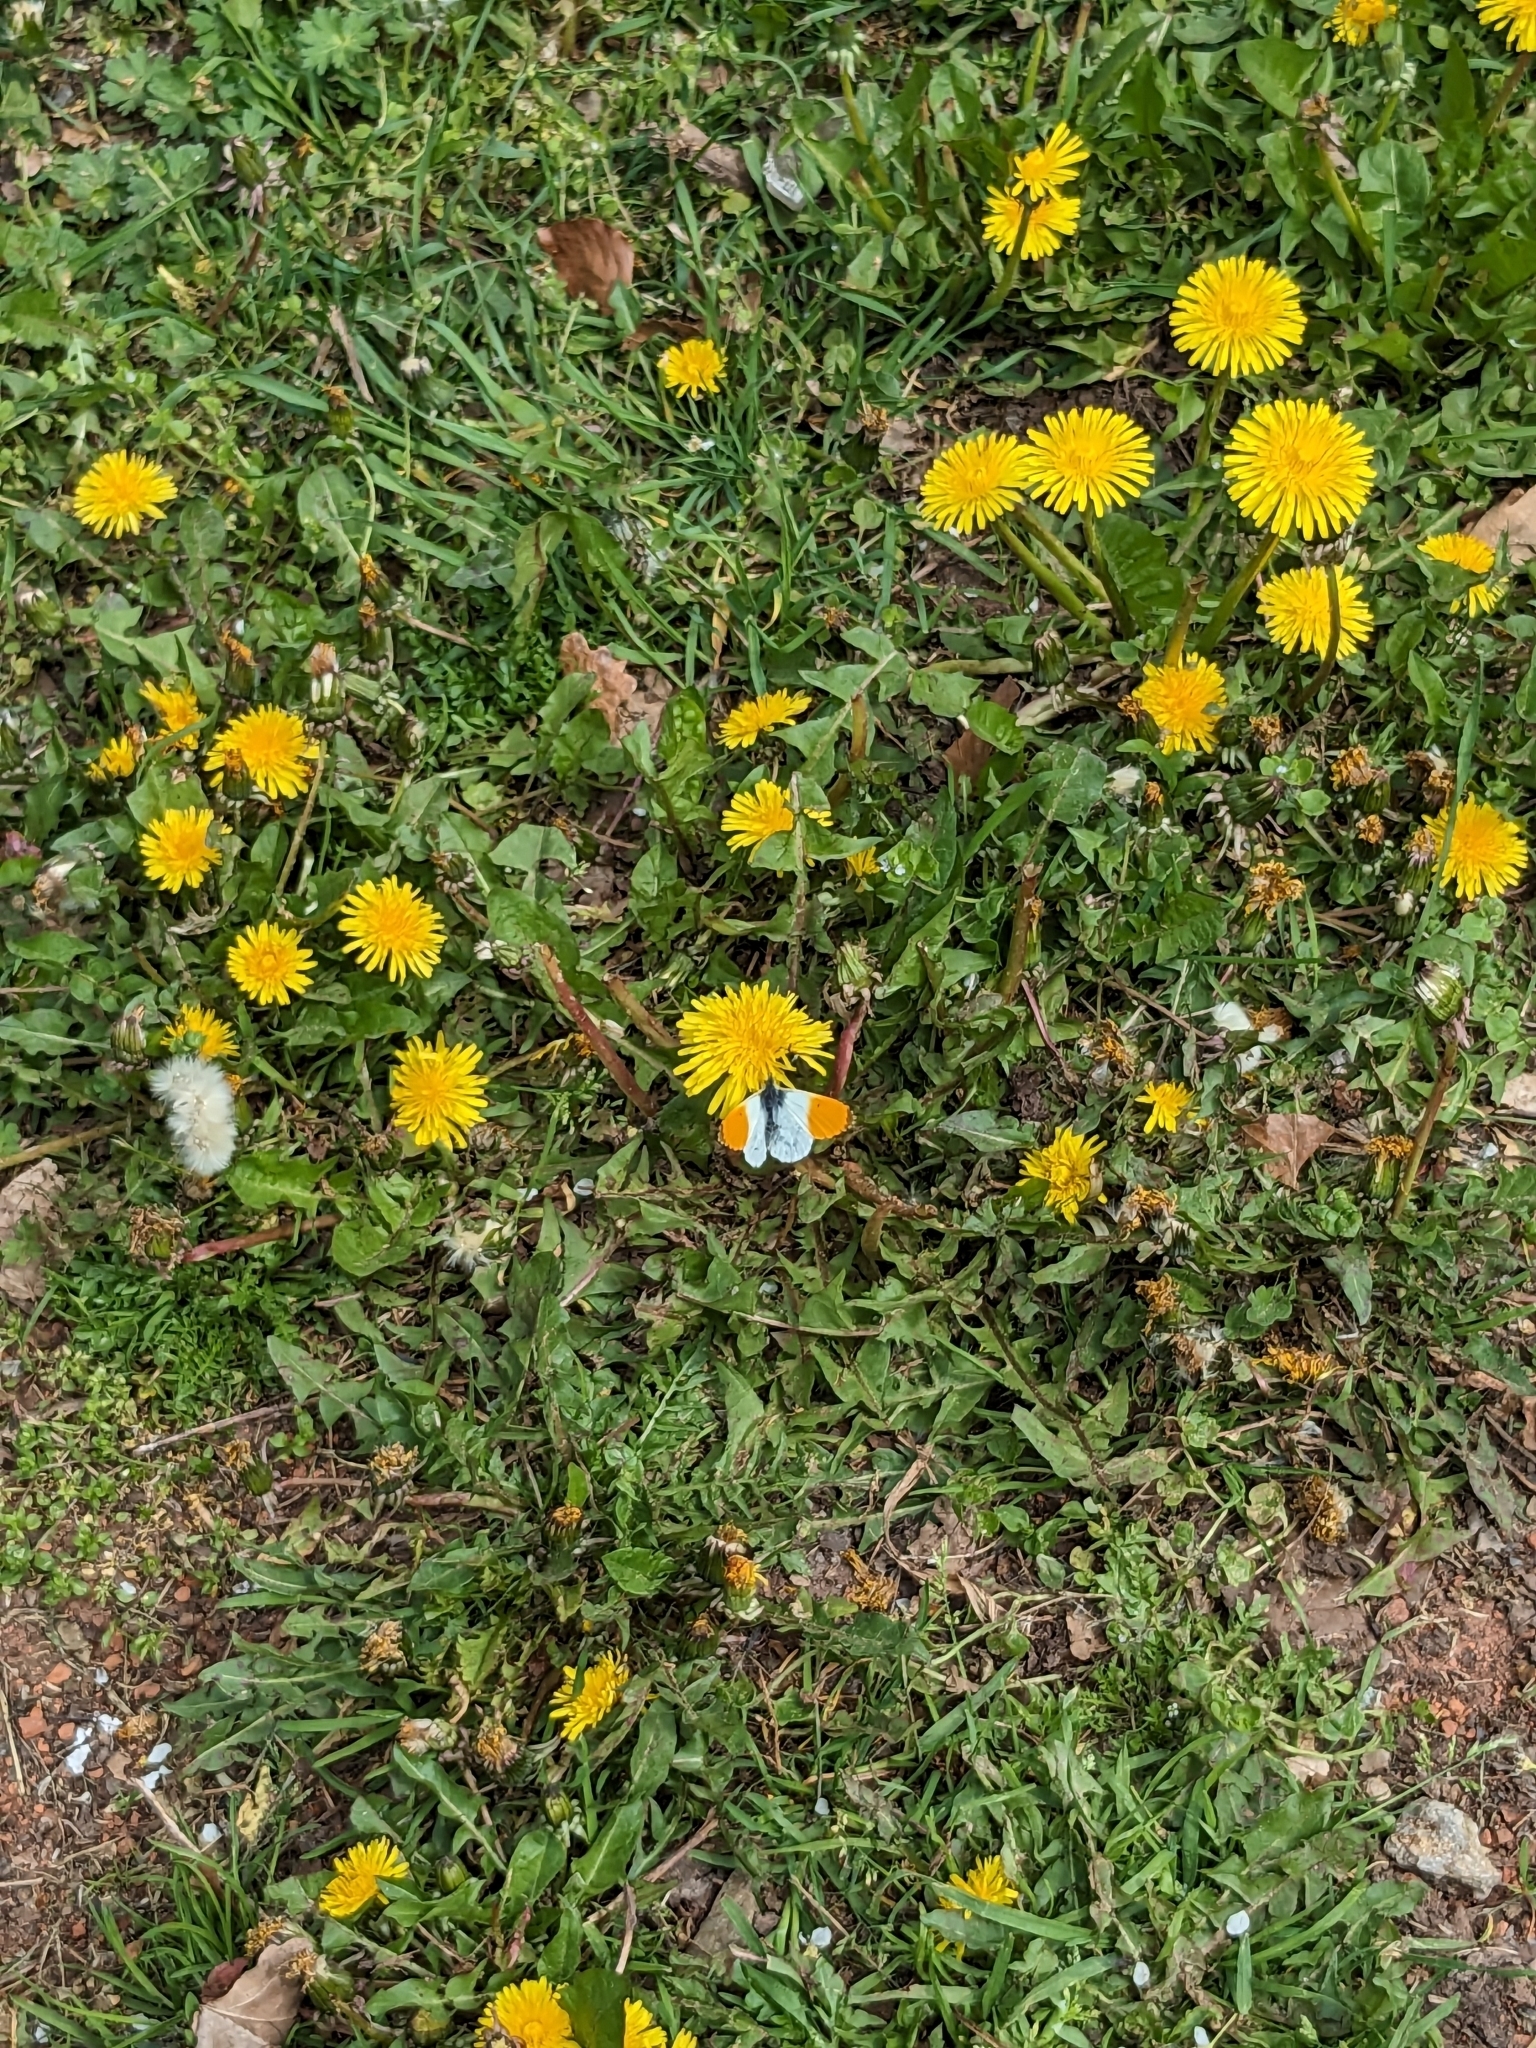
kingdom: Animalia
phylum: Arthropoda
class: Insecta
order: Lepidoptera
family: Pieridae
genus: Anthocharis
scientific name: Anthocharis cardamines
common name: Orange-tip
